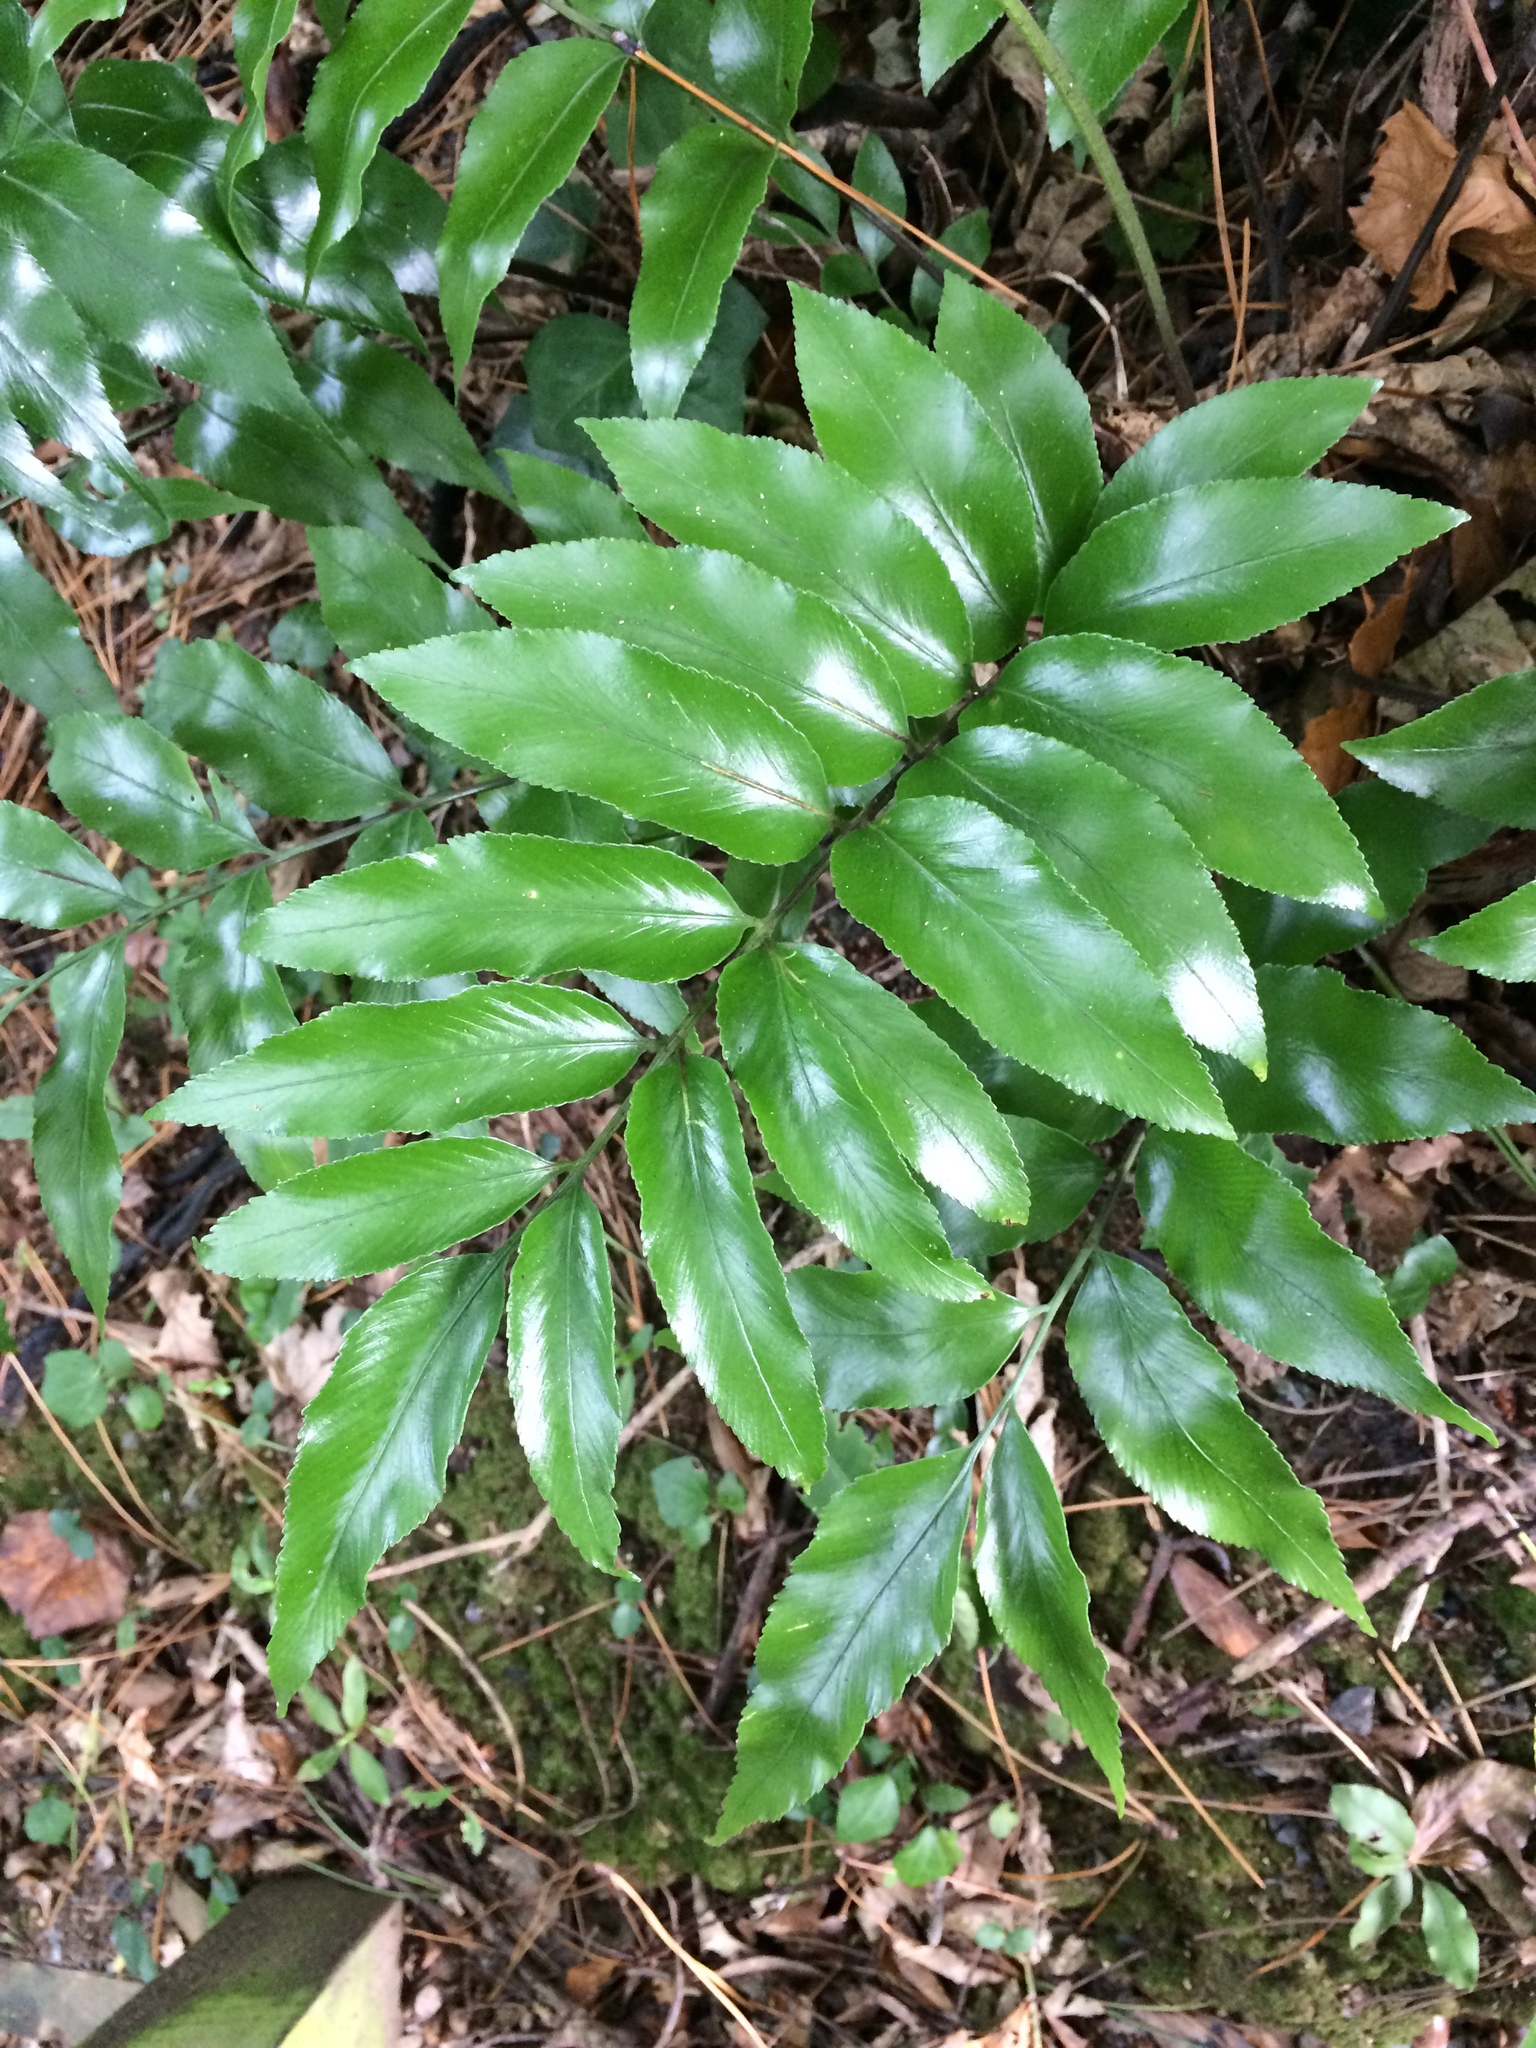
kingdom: Plantae
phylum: Tracheophyta
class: Polypodiopsida
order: Polypodiales
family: Aspleniaceae
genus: Asplenium
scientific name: Asplenium oblongifolium
